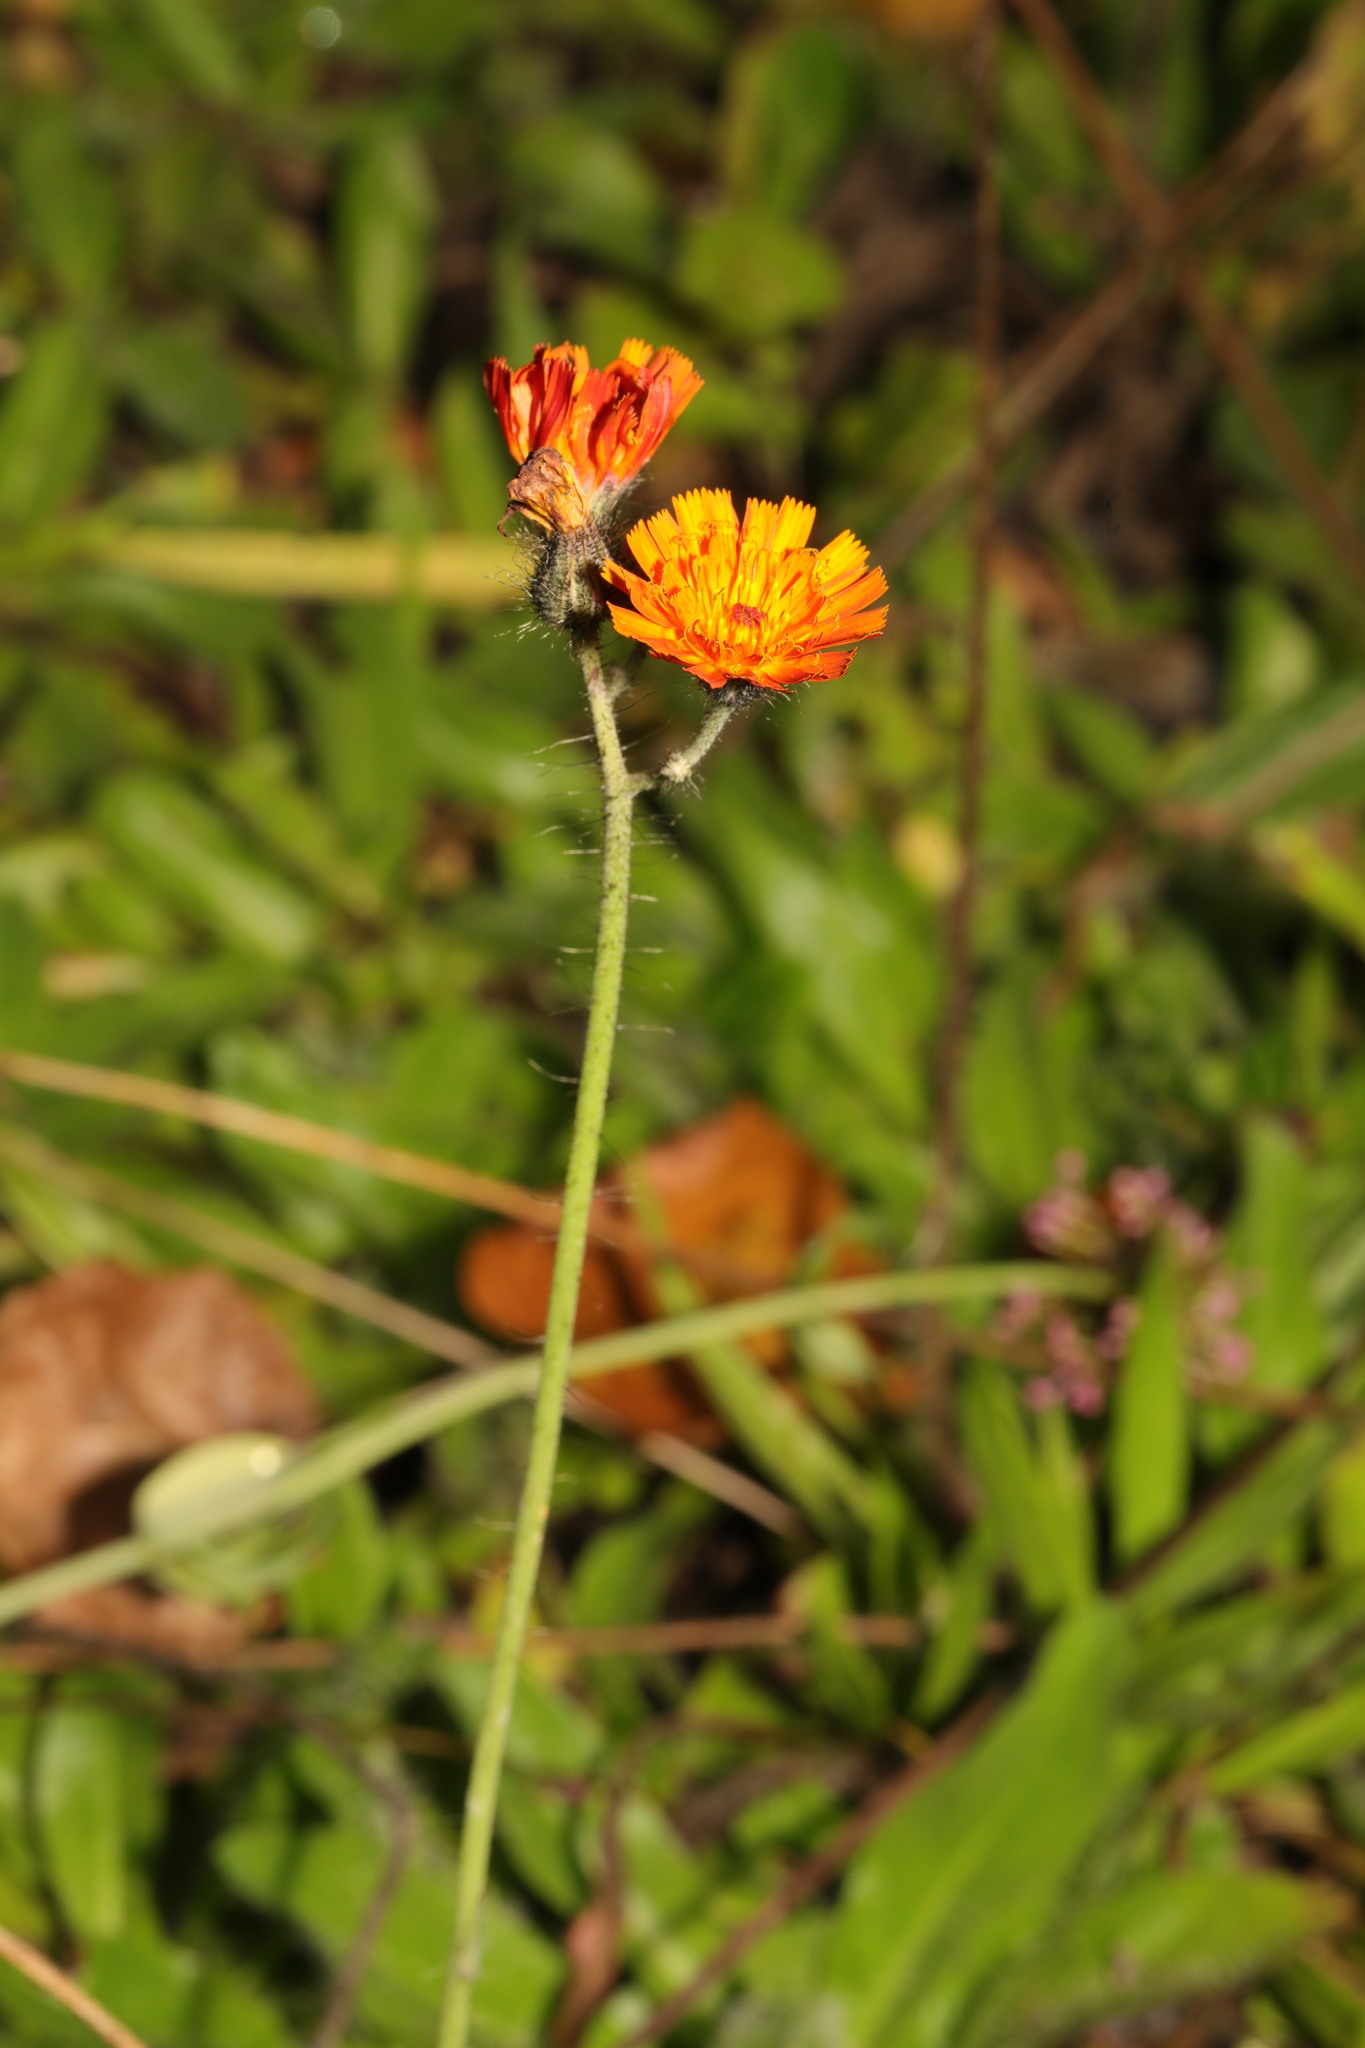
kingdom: Plantae
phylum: Tracheophyta
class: Magnoliopsida
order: Asterales
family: Asteraceae
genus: Pilosella
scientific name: Pilosella aurantiaca
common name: Fox-and-cubs
